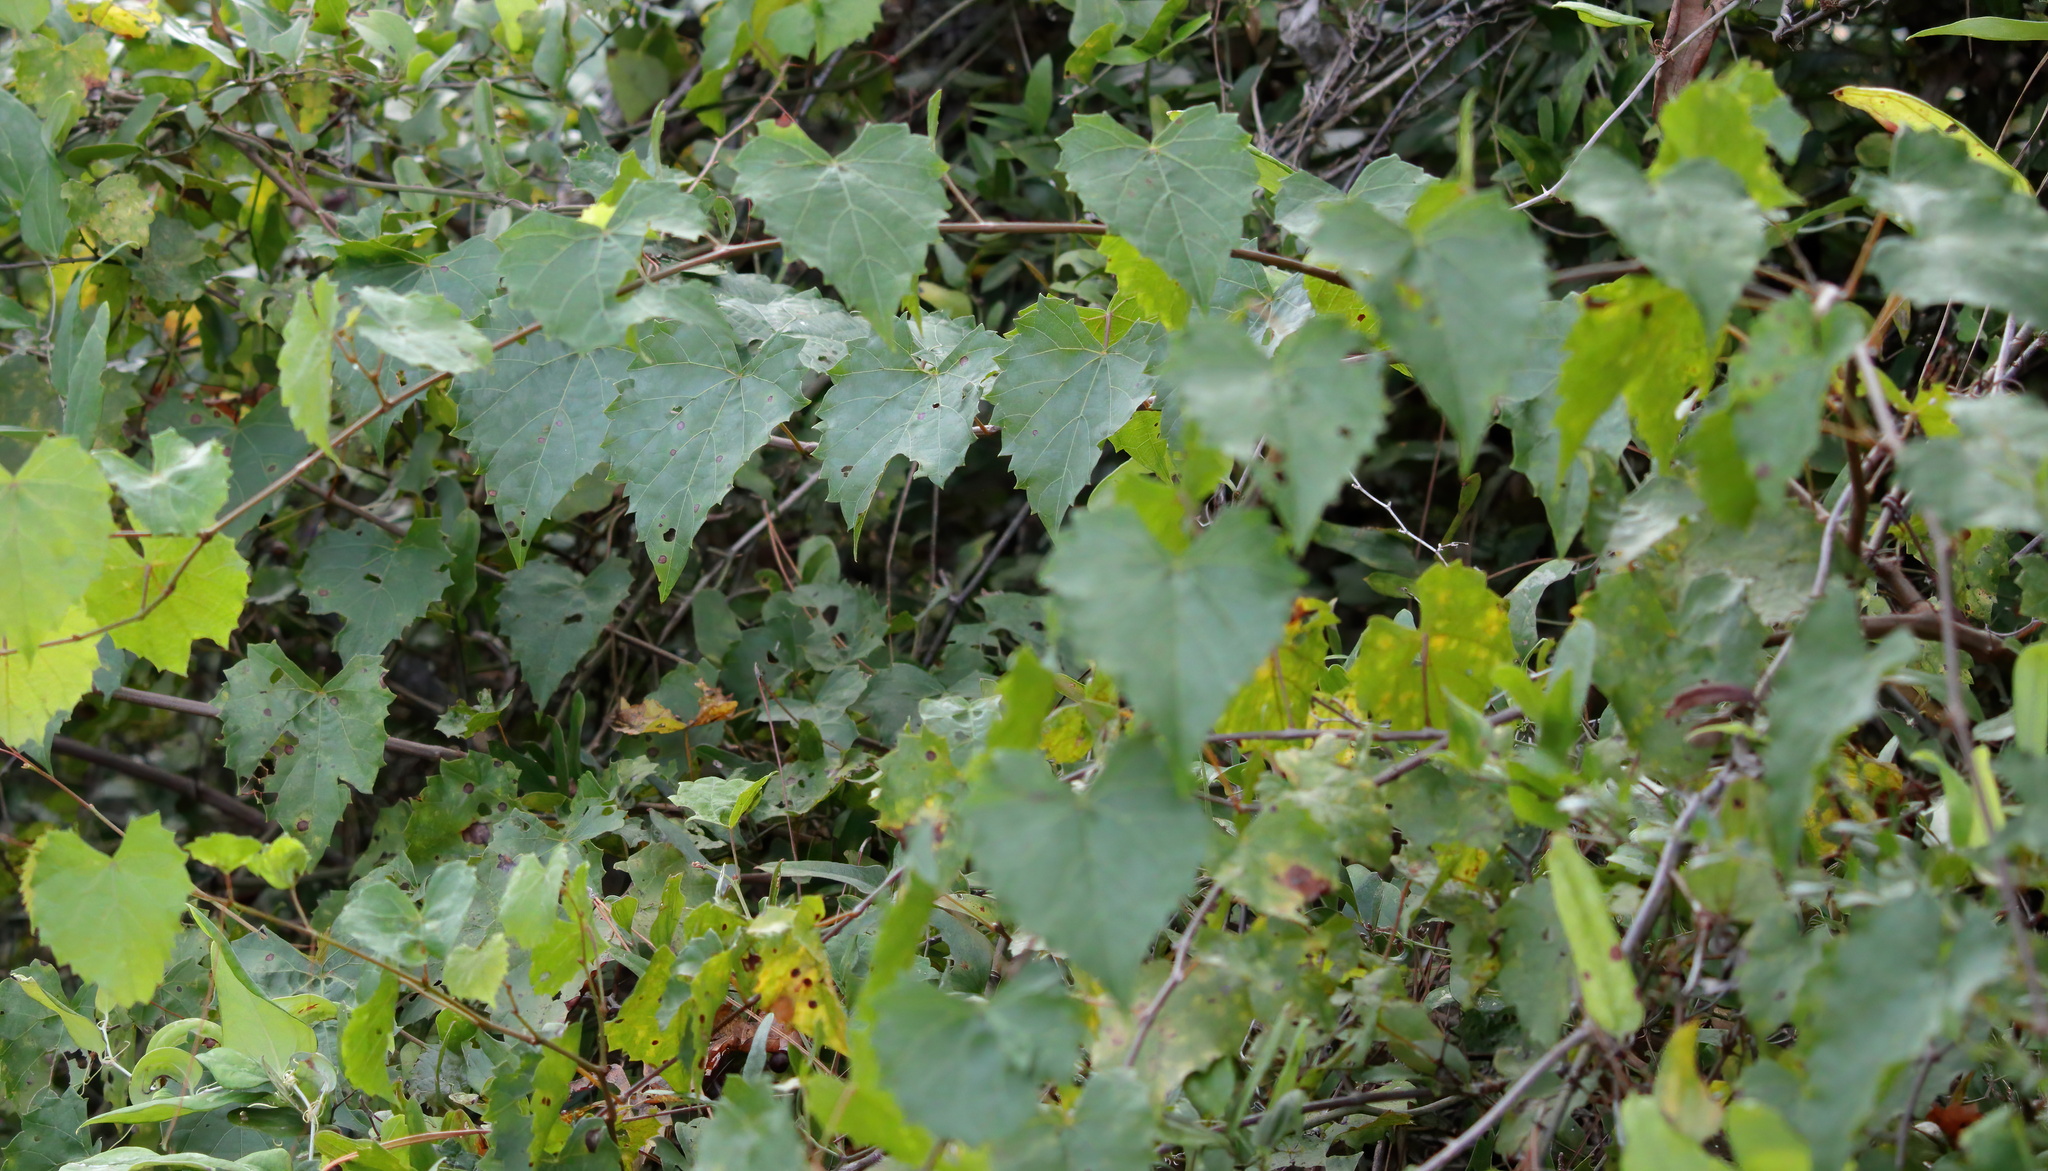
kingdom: Plantae
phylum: Tracheophyta
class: Magnoliopsida
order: Vitales
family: Vitaceae
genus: Vitis
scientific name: Vitis rotundifolia
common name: Muscadine grape
